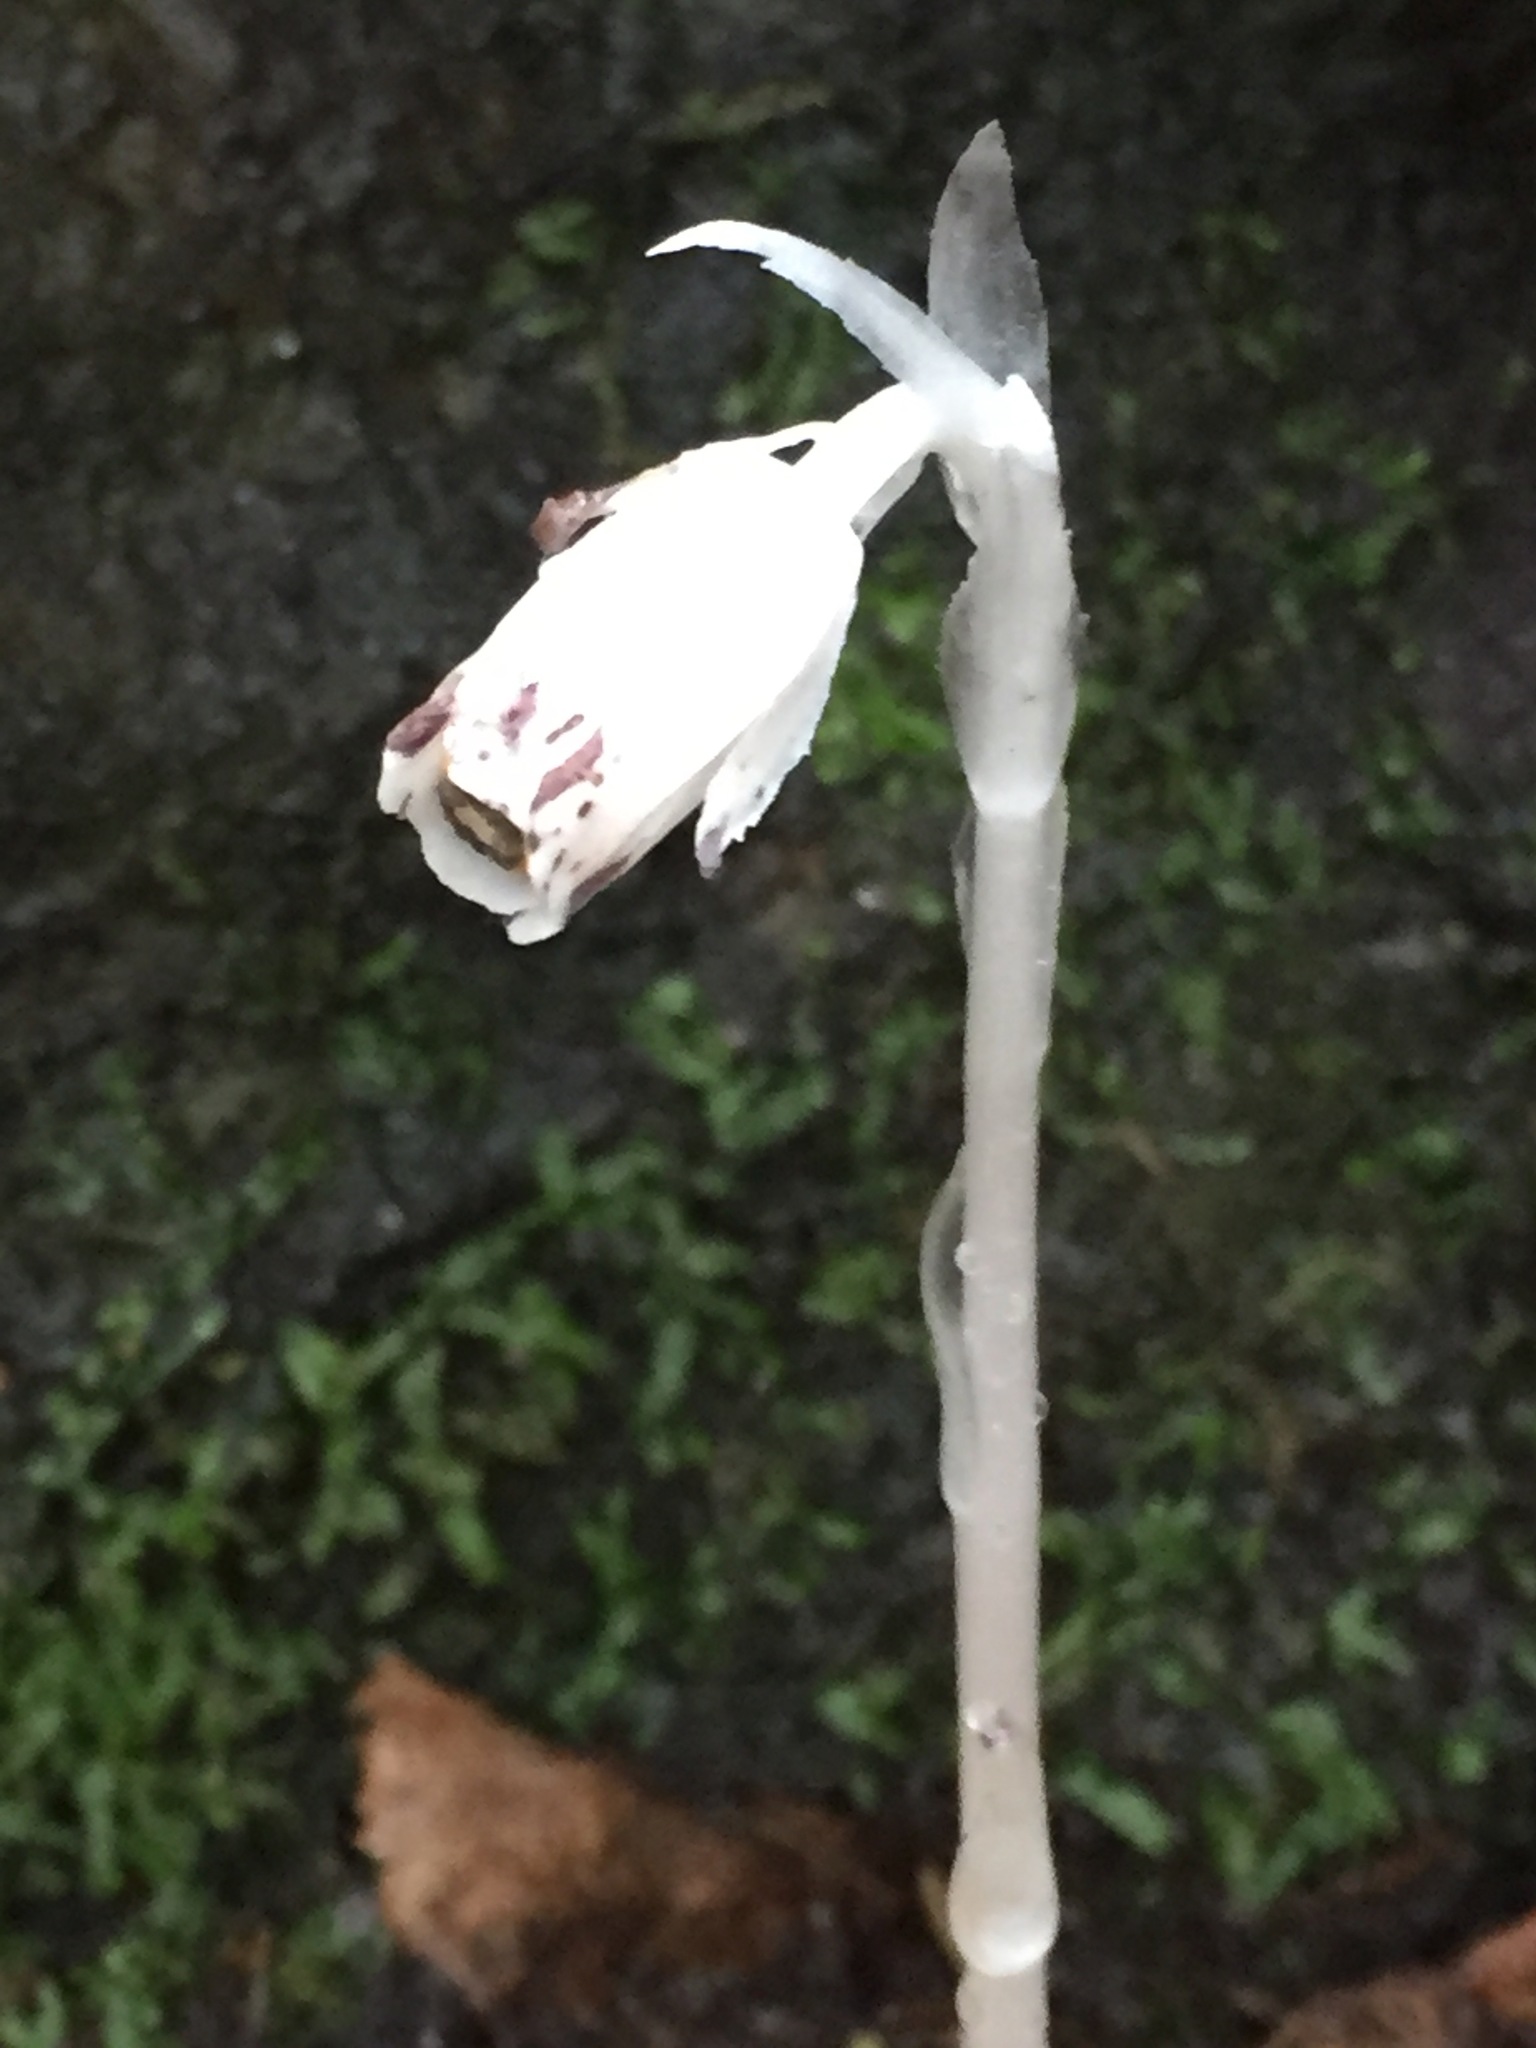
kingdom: Plantae
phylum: Tracheophyta
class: Magnoliopsida
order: Ericales
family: Ericaceae
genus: Monotropa
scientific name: Monotropa uniflora
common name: Convulsion root
